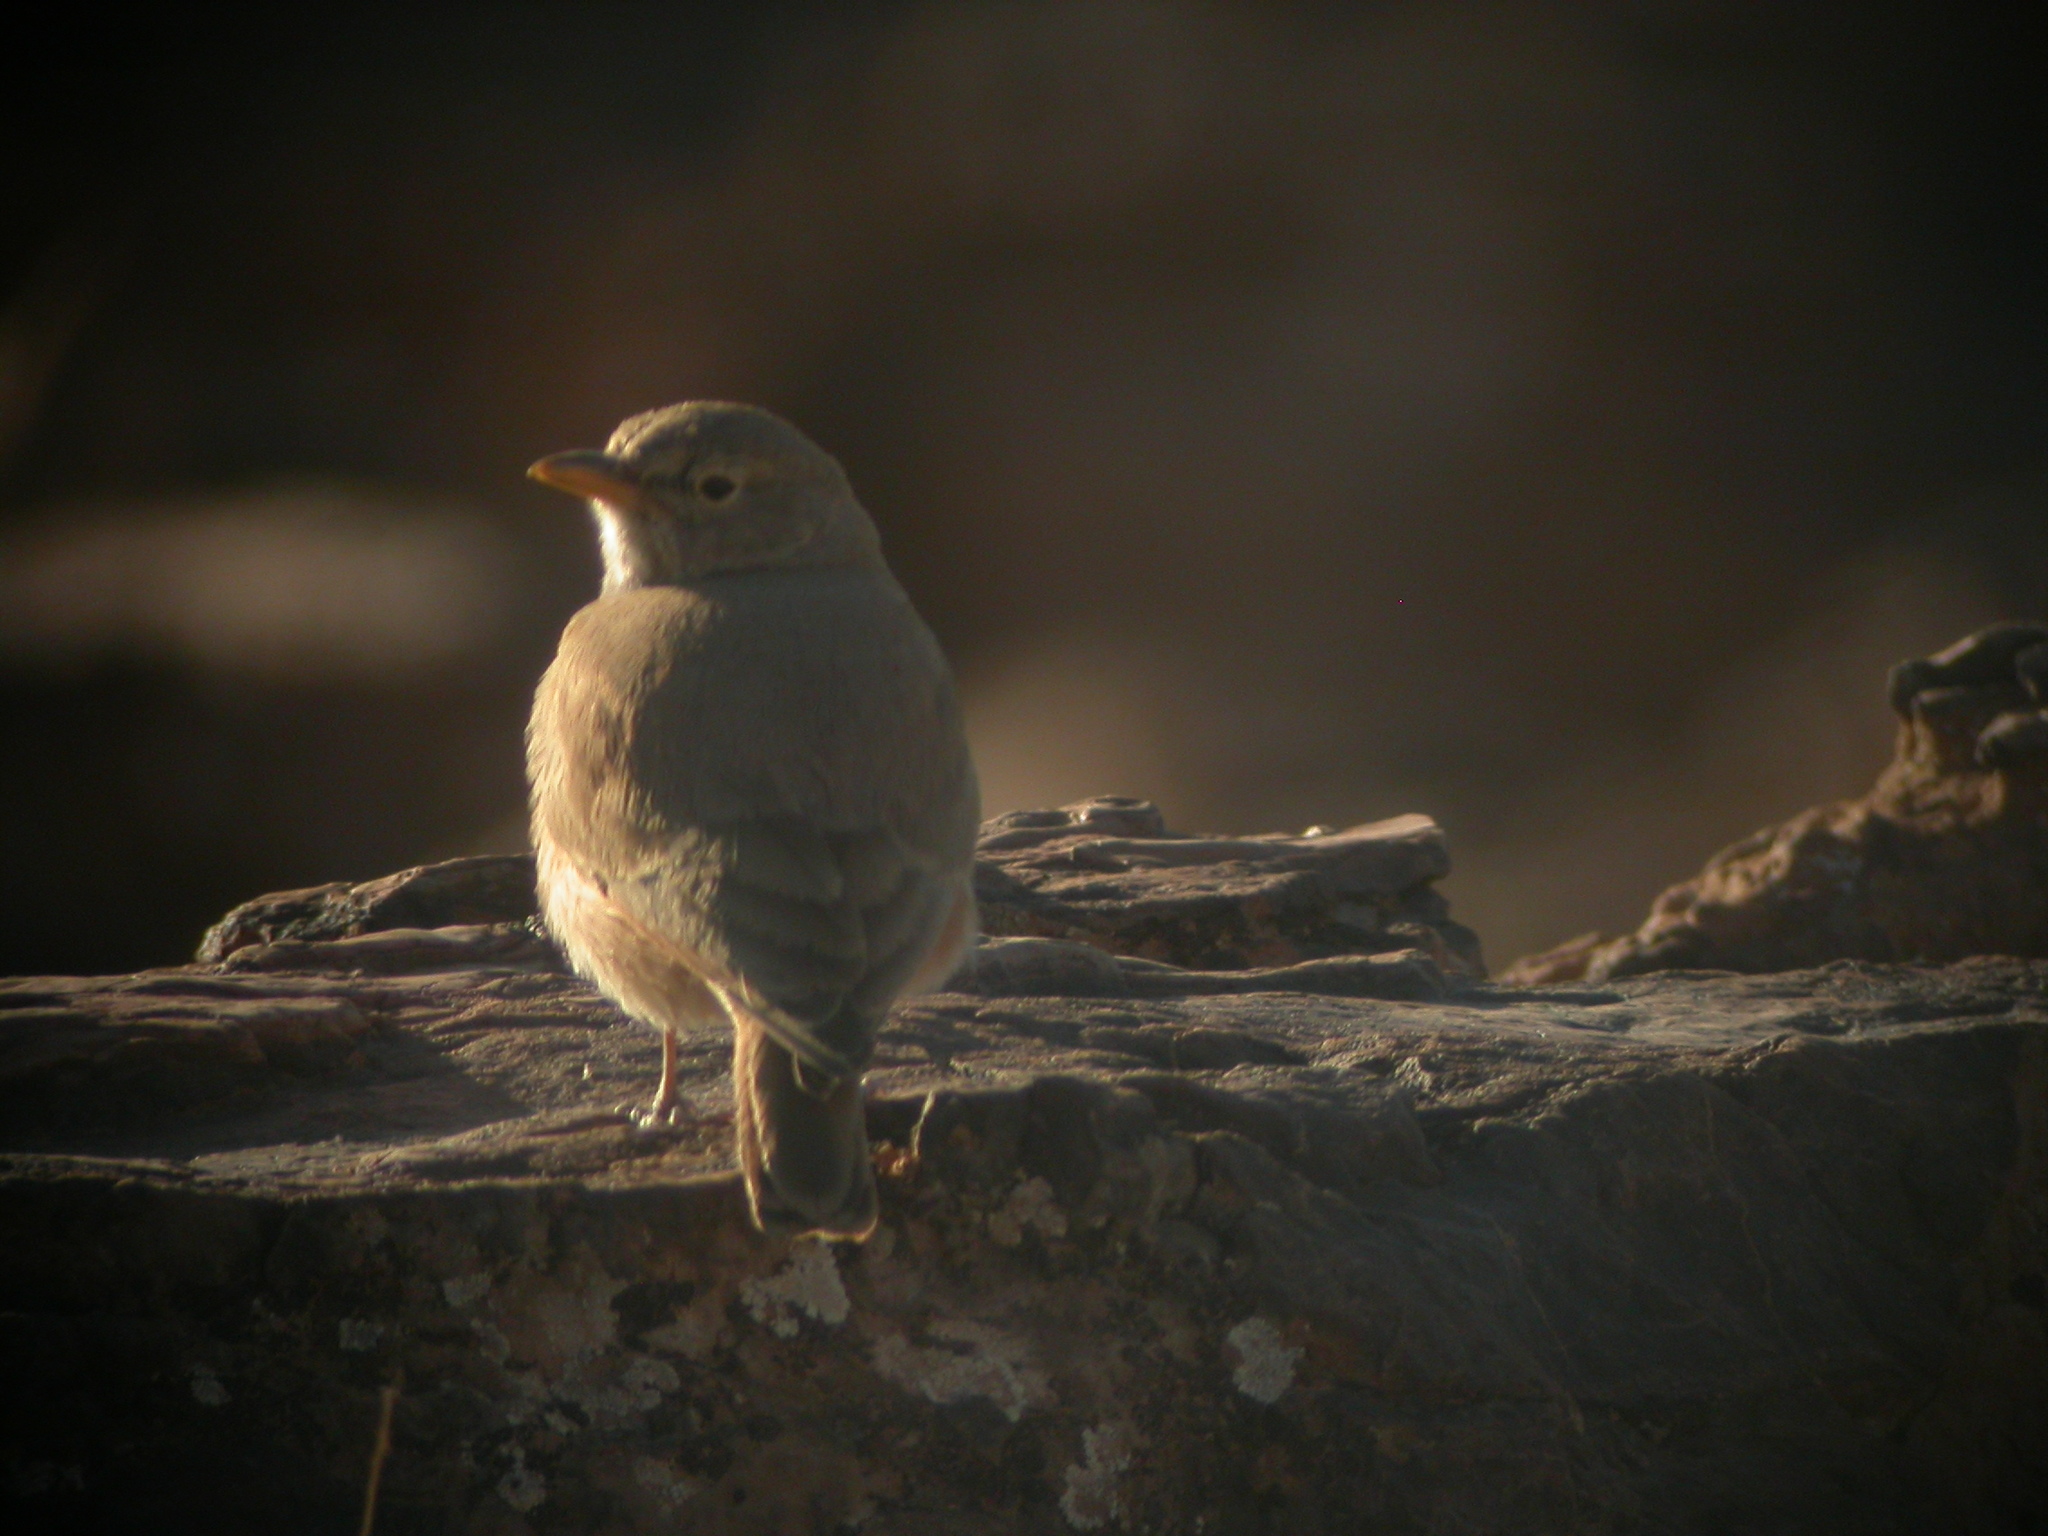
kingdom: Animalia
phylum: Chordata
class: Aves
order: Passeriformes
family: Alaudidae
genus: Ammomanes
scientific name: Ammomanes deserti
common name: Desert lark
